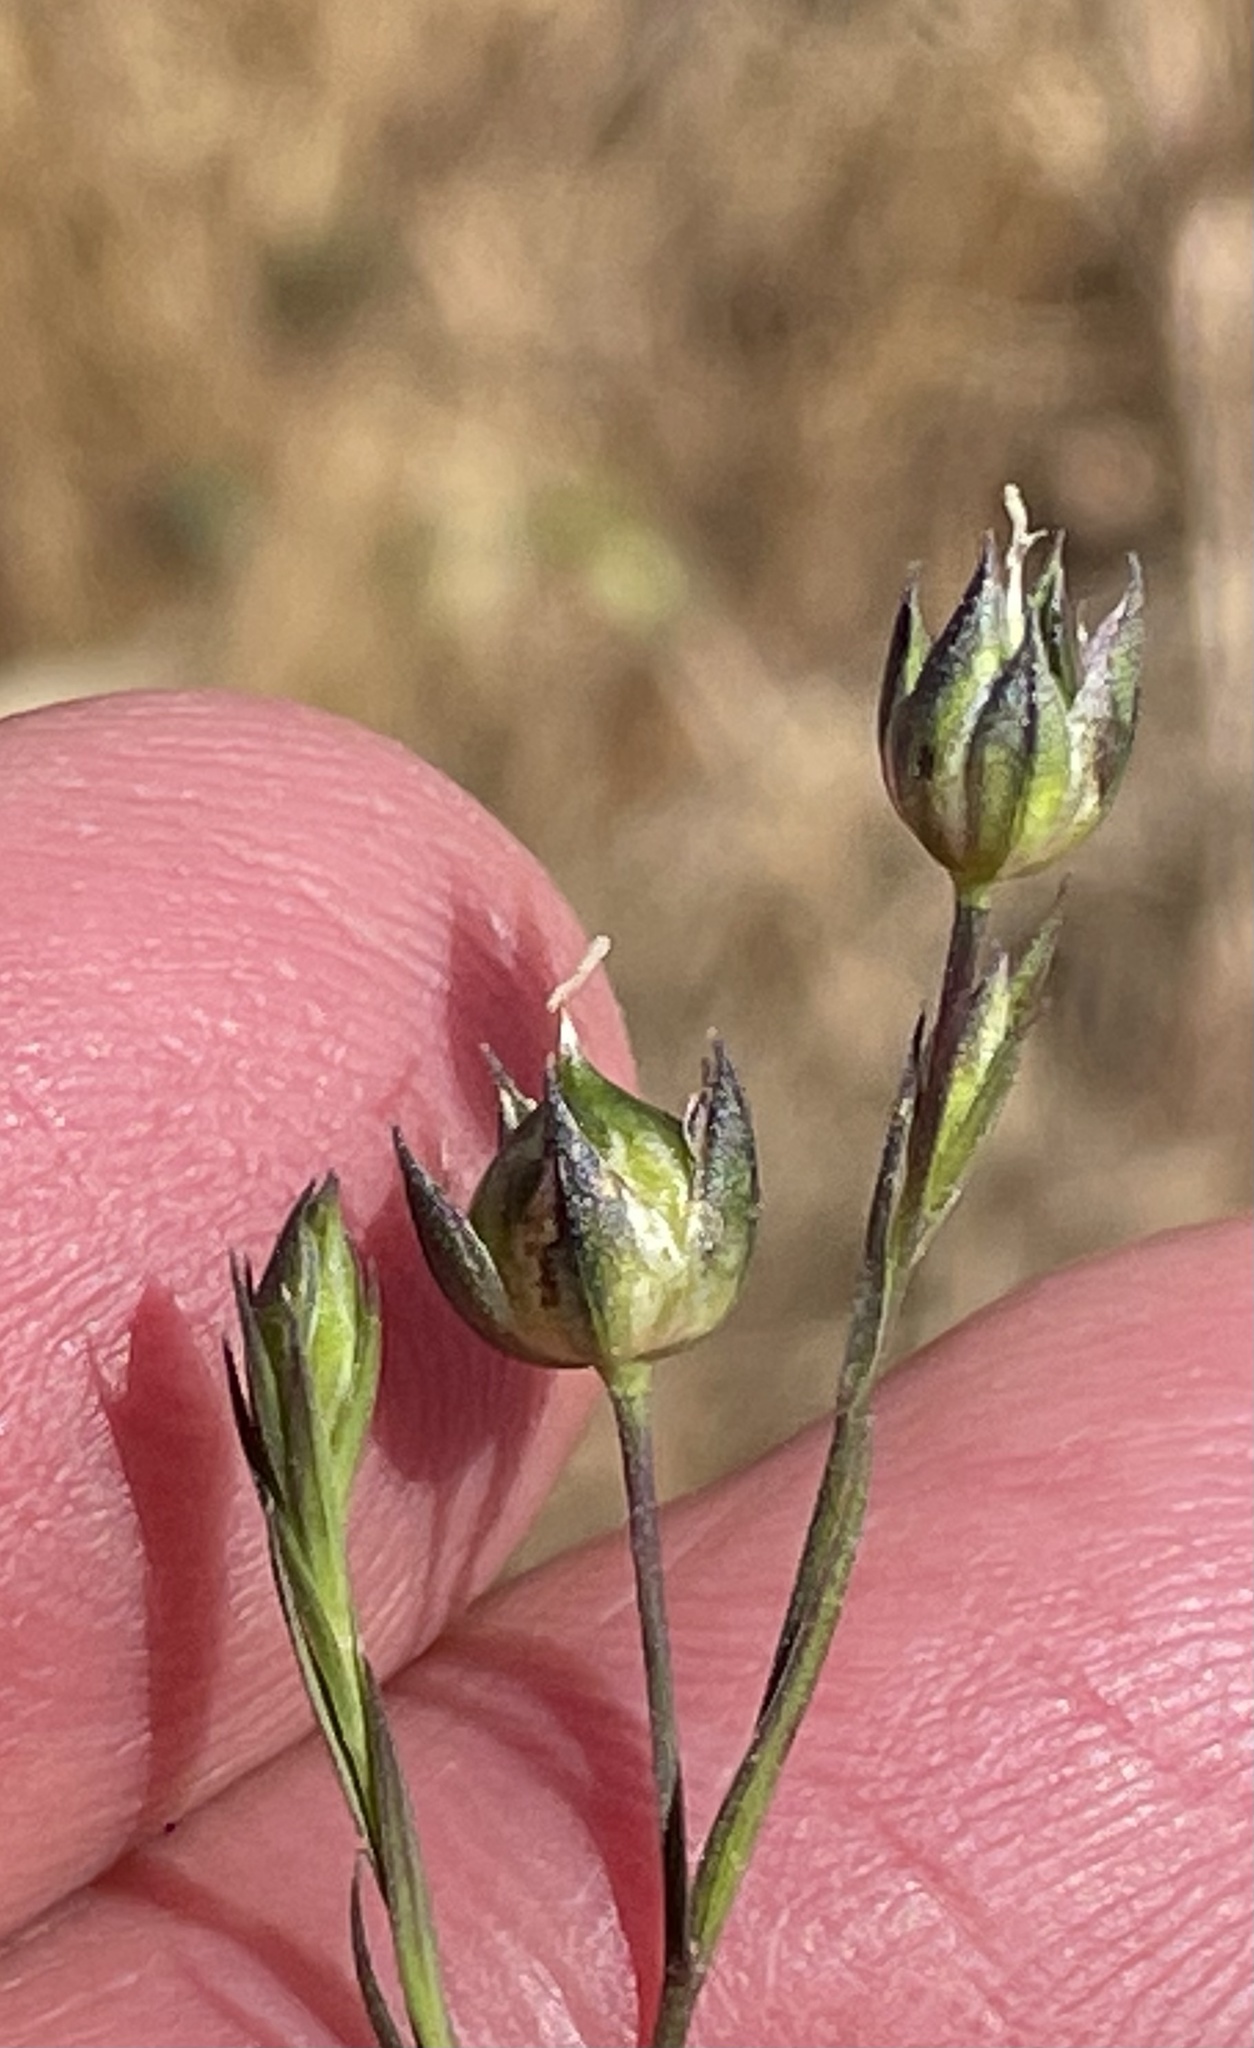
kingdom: Plantae
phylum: Tracheophyta
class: Magnoliopsida
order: Malpighiales
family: Linaceae
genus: Linum
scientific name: Linum bienne
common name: Pale flax
